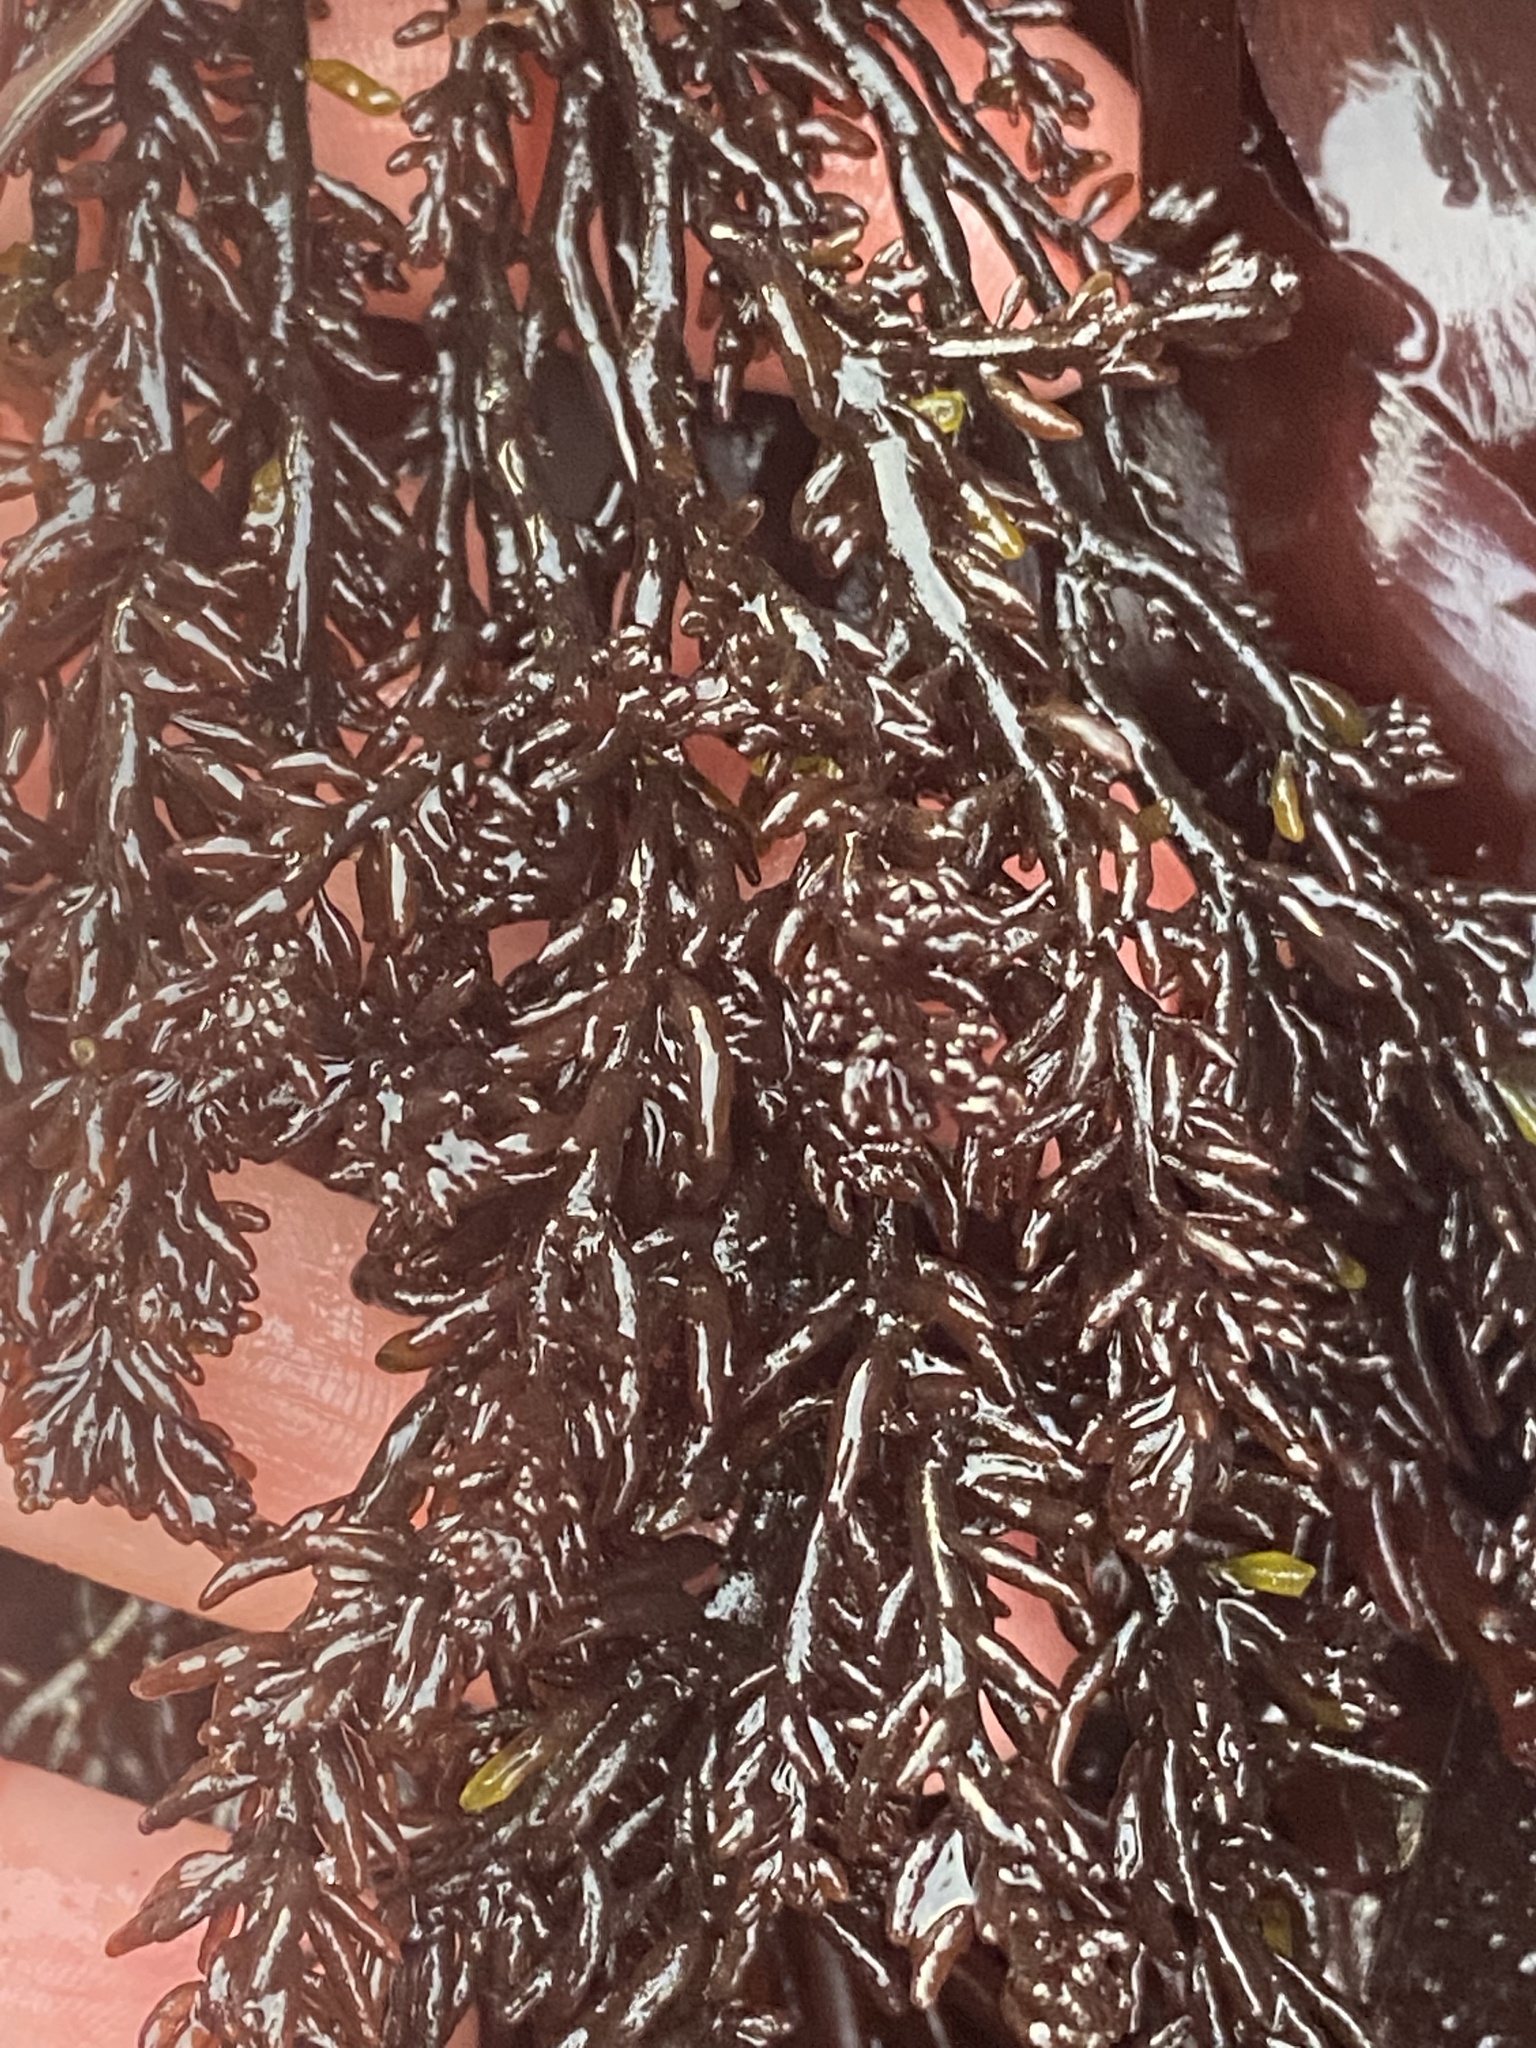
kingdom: Plantae
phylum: Rhodophyta
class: Florideophyceae
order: Rhodymeniales
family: Champiaceae
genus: Neogastroclonium
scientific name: Neogastroclonium subarticulatum
